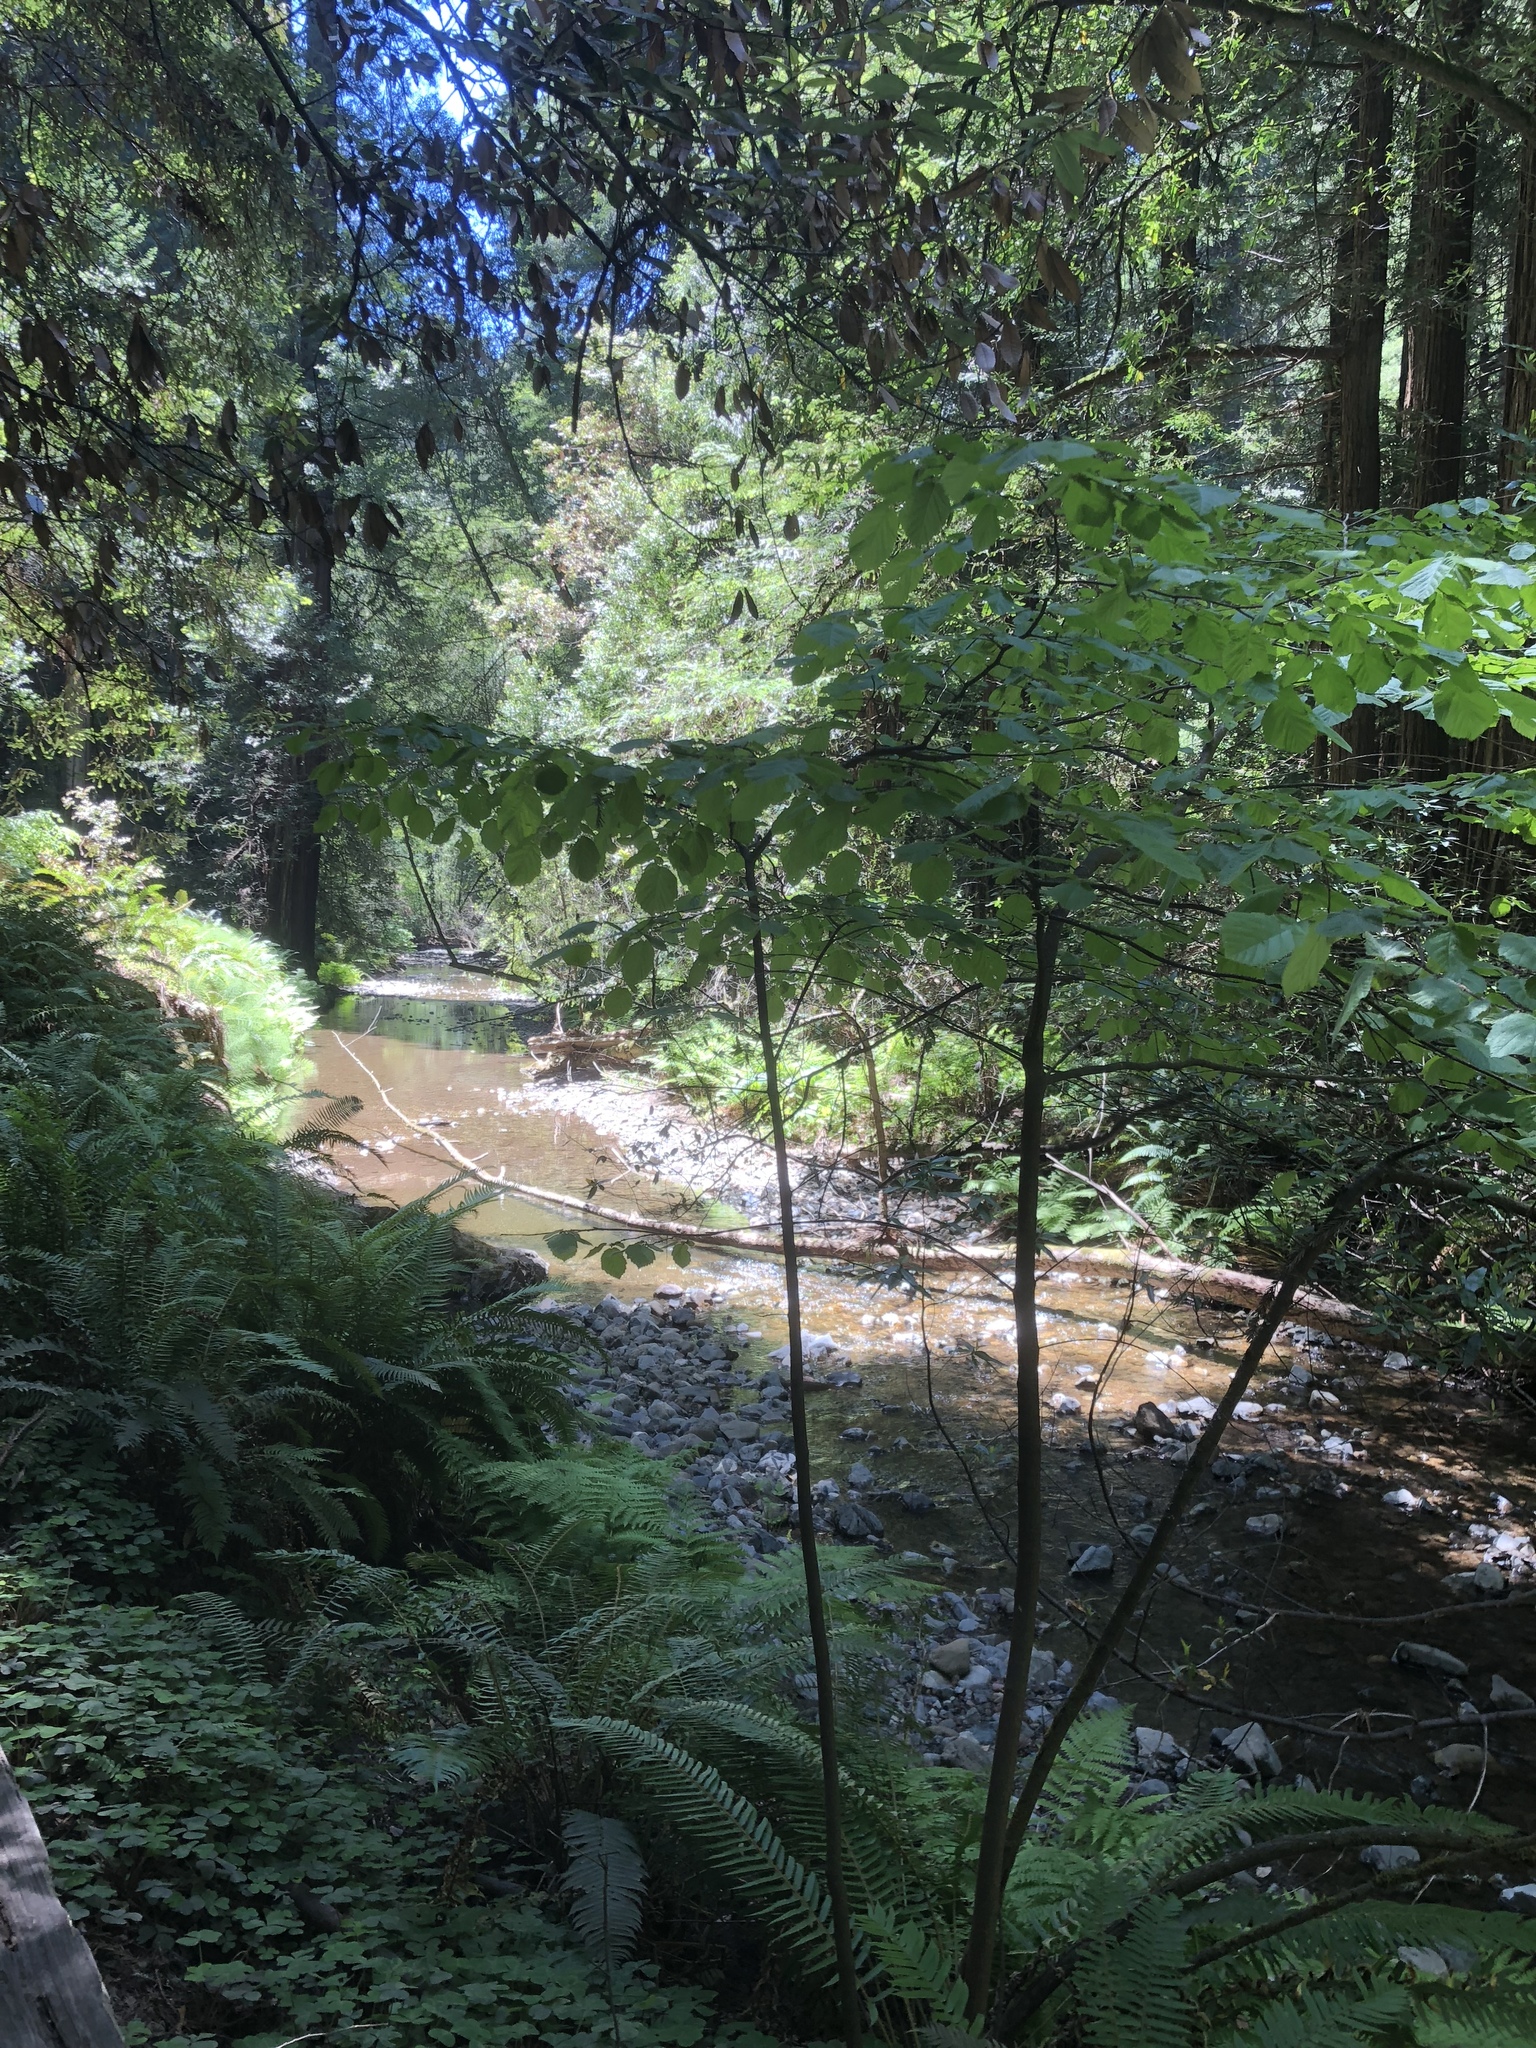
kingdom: Plantae
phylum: Tracheophyta
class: Magnoliopsida
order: Fagales
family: Betulaceae
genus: Corylus
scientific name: Corylus cornuta
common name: Beaked hazel
